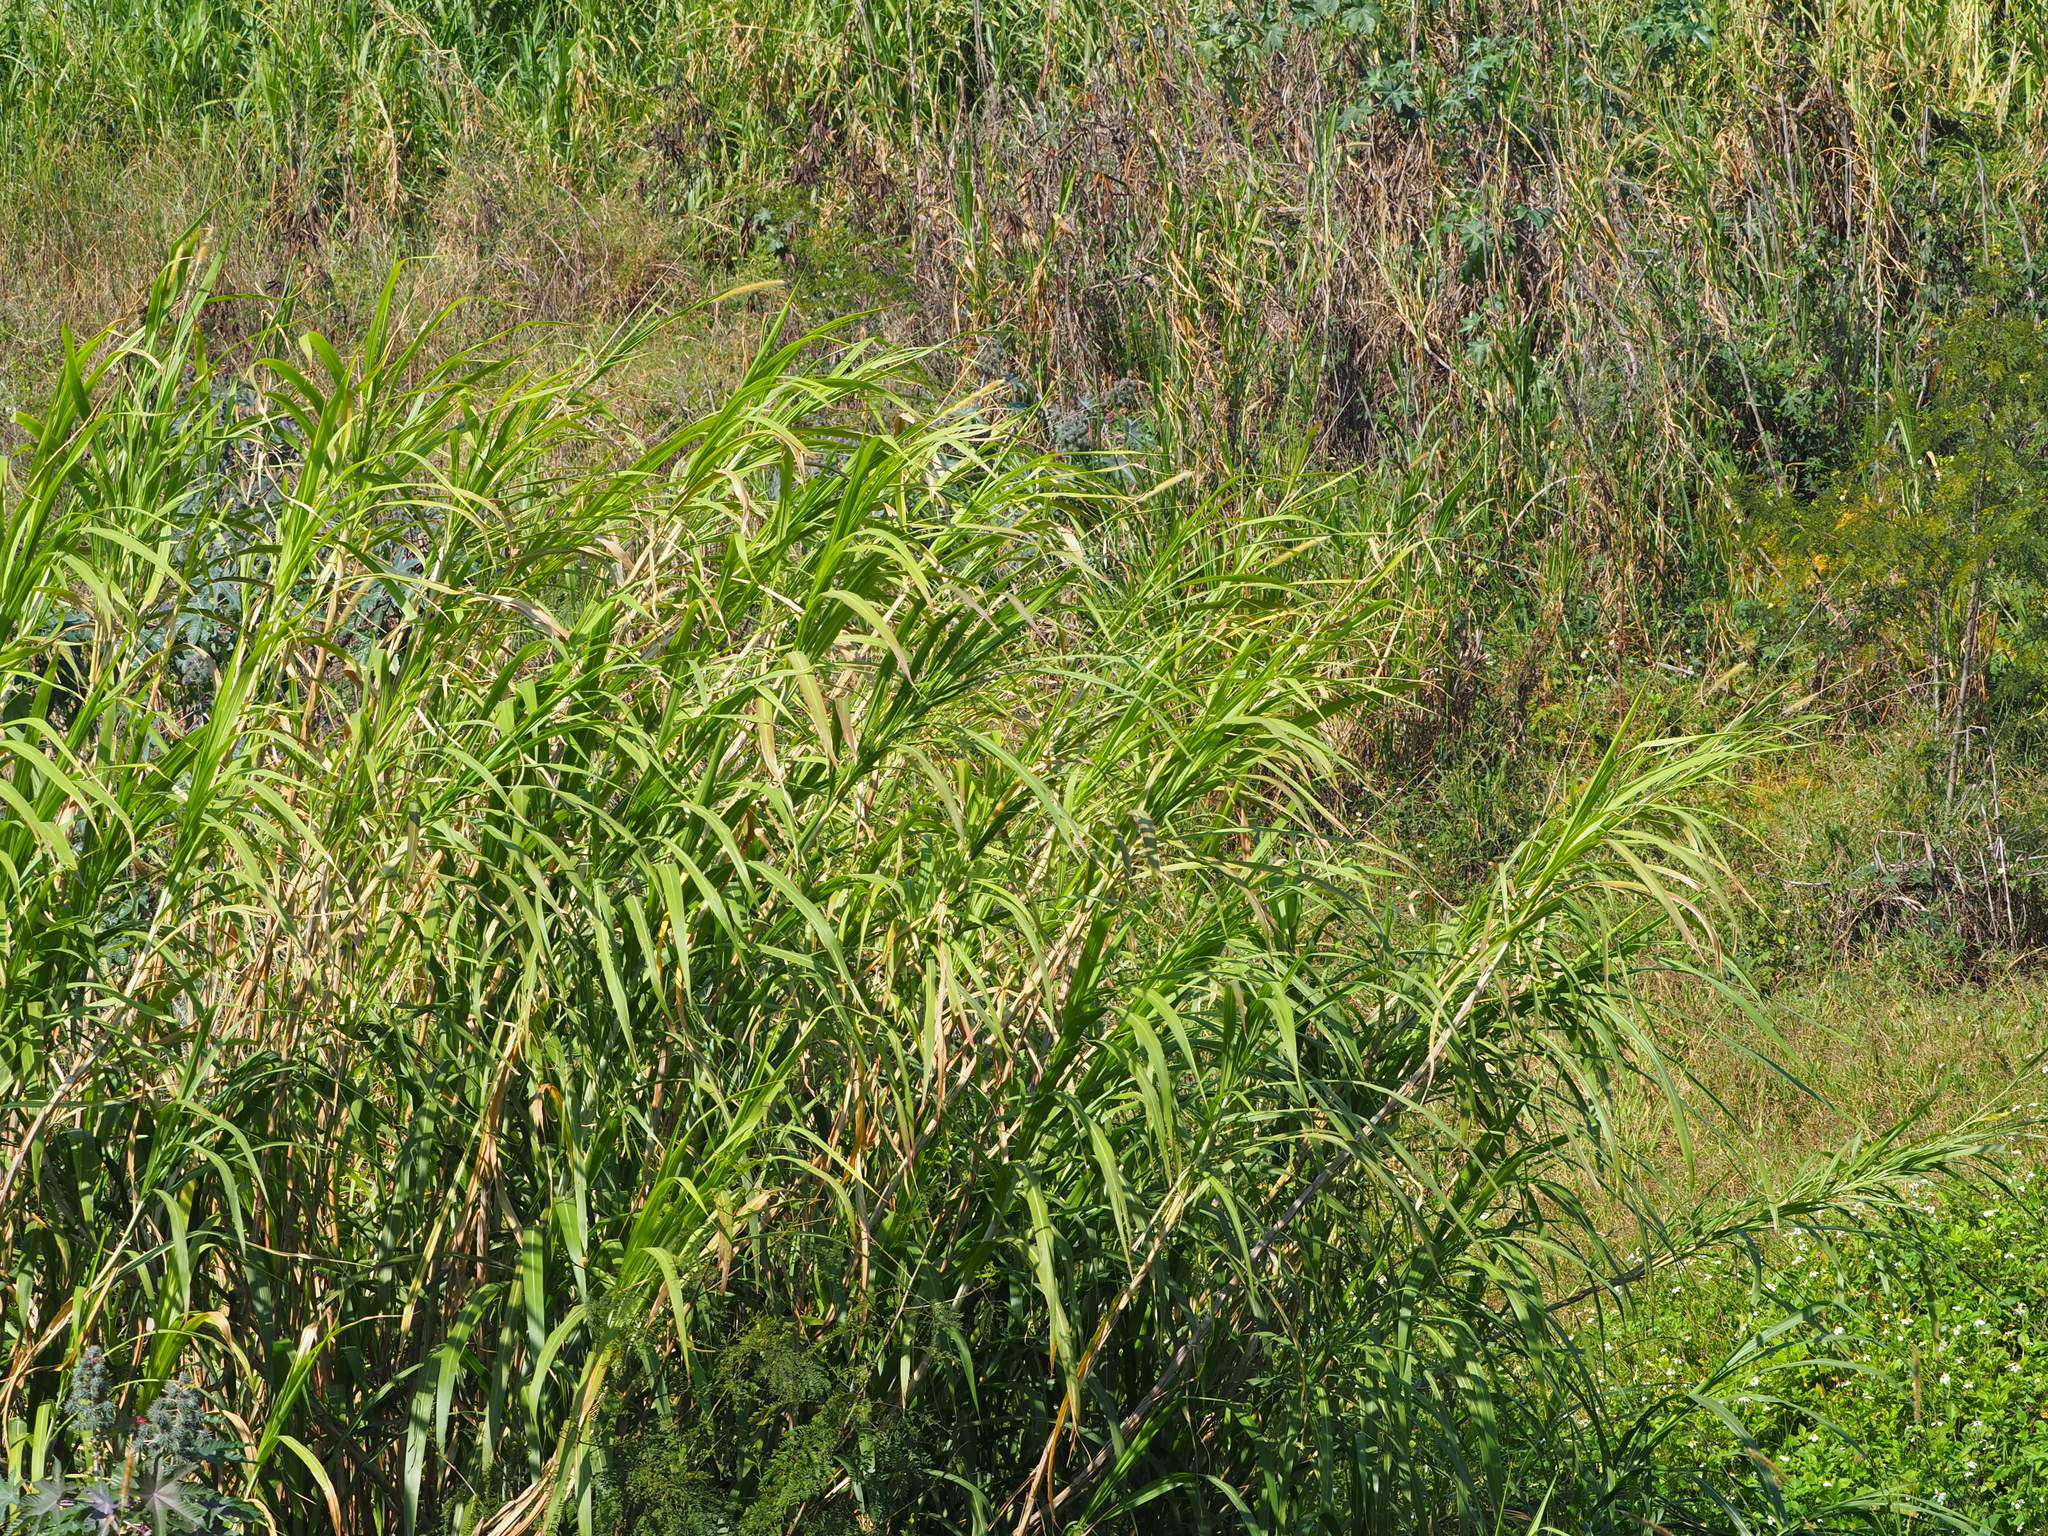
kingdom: Plantae
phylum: Tracheophyta
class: Liliopsida
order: Poales
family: Poaceae
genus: Cenchrus
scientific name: Cenchrus purpureus
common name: Elephant grass
